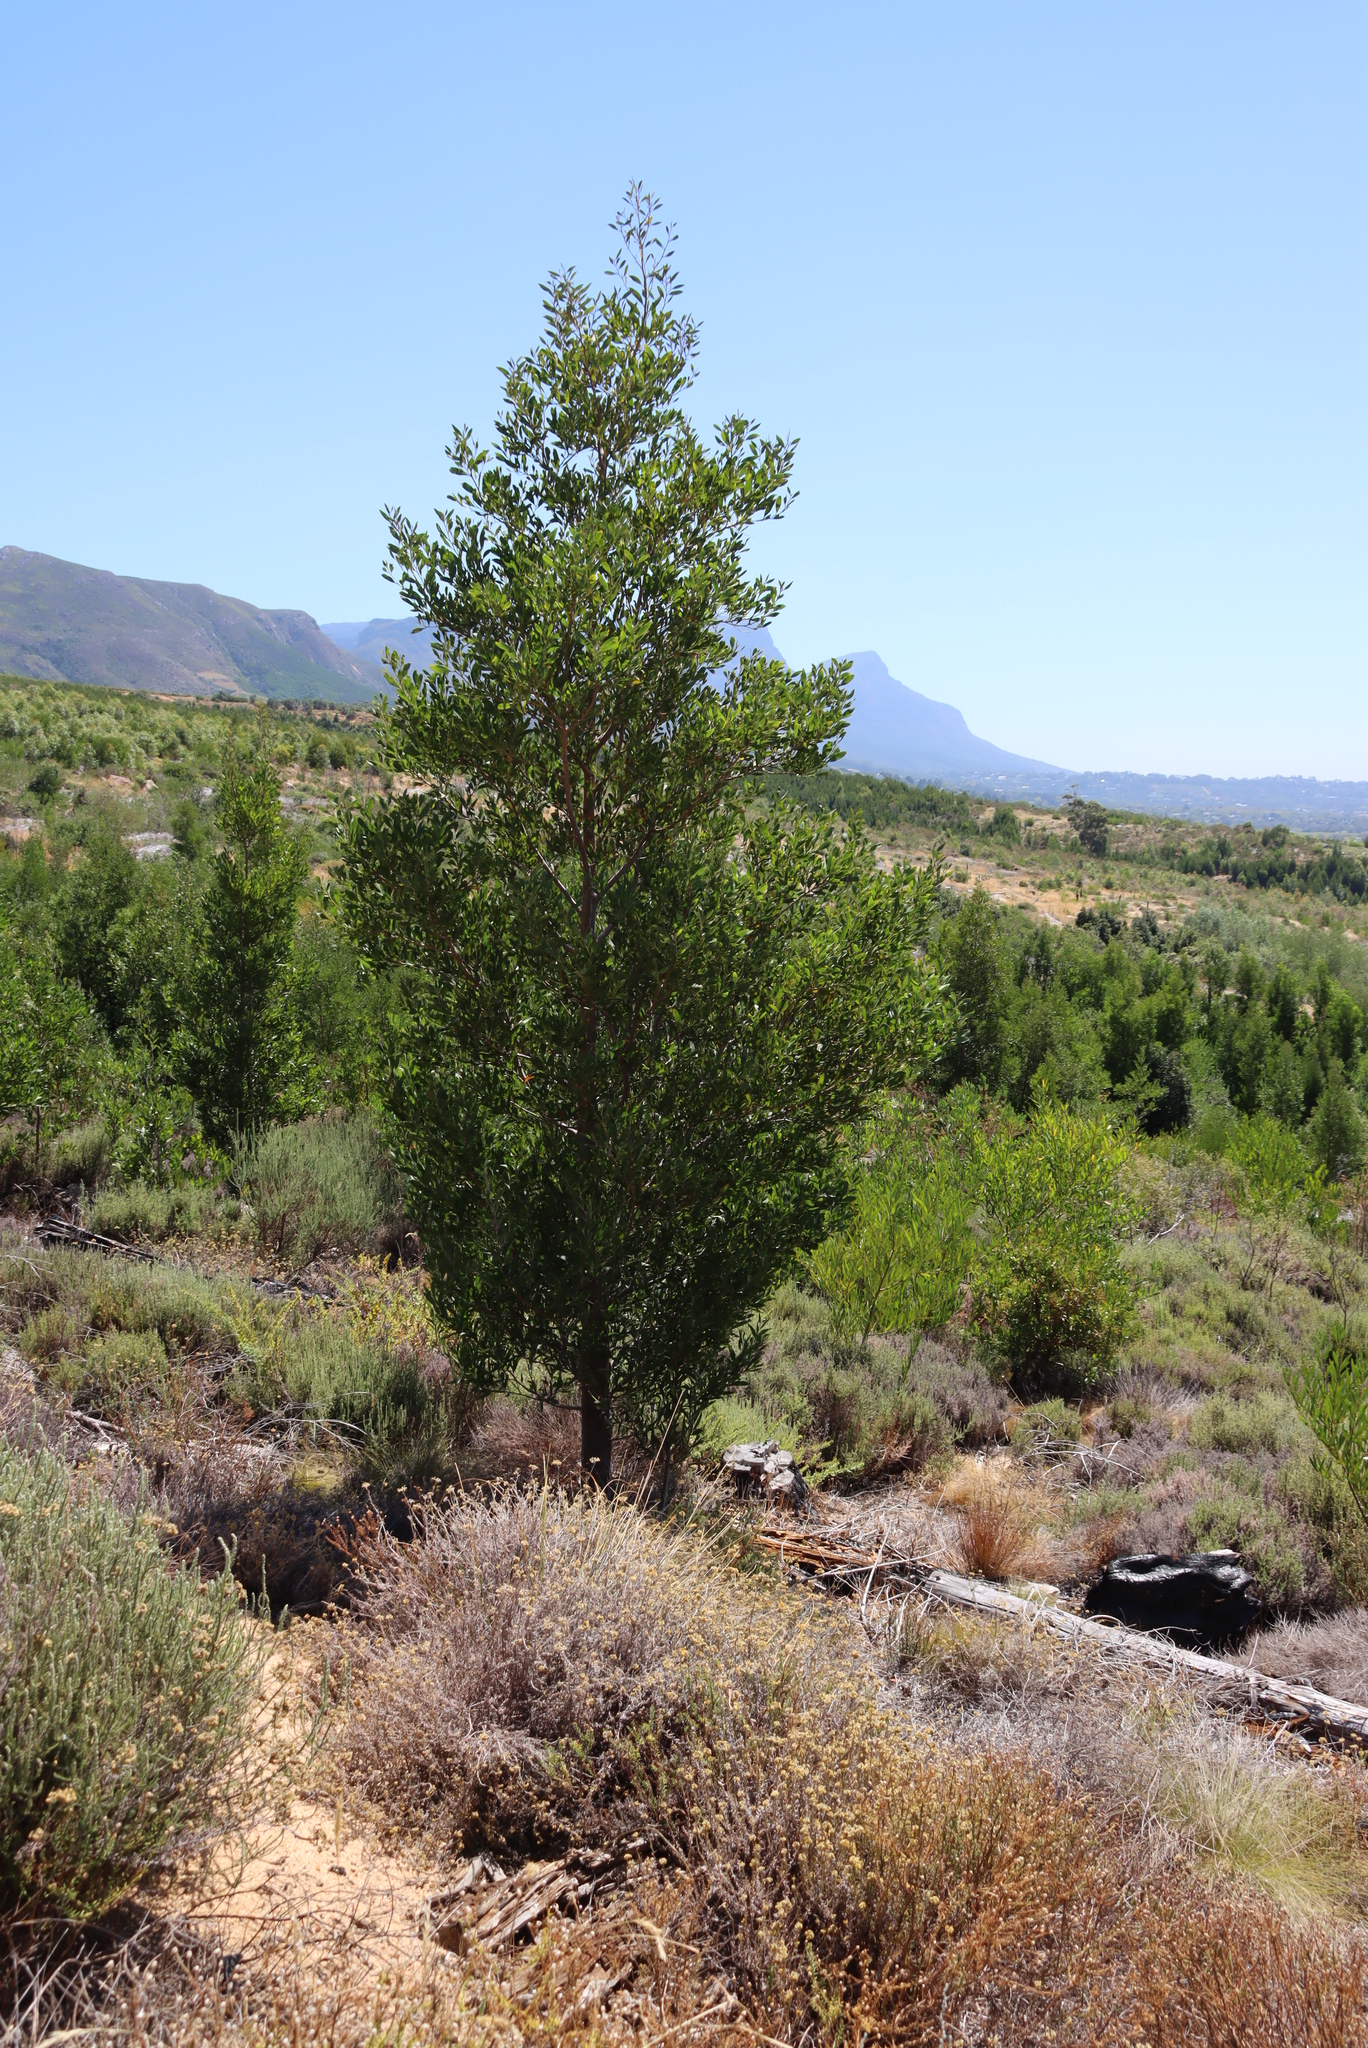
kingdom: Plantae
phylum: Tracheophyta
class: Magnoliopsida
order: Fabales
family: Fabaceae
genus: Acacia
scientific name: Acacia melanoxylon
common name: Blackwood
